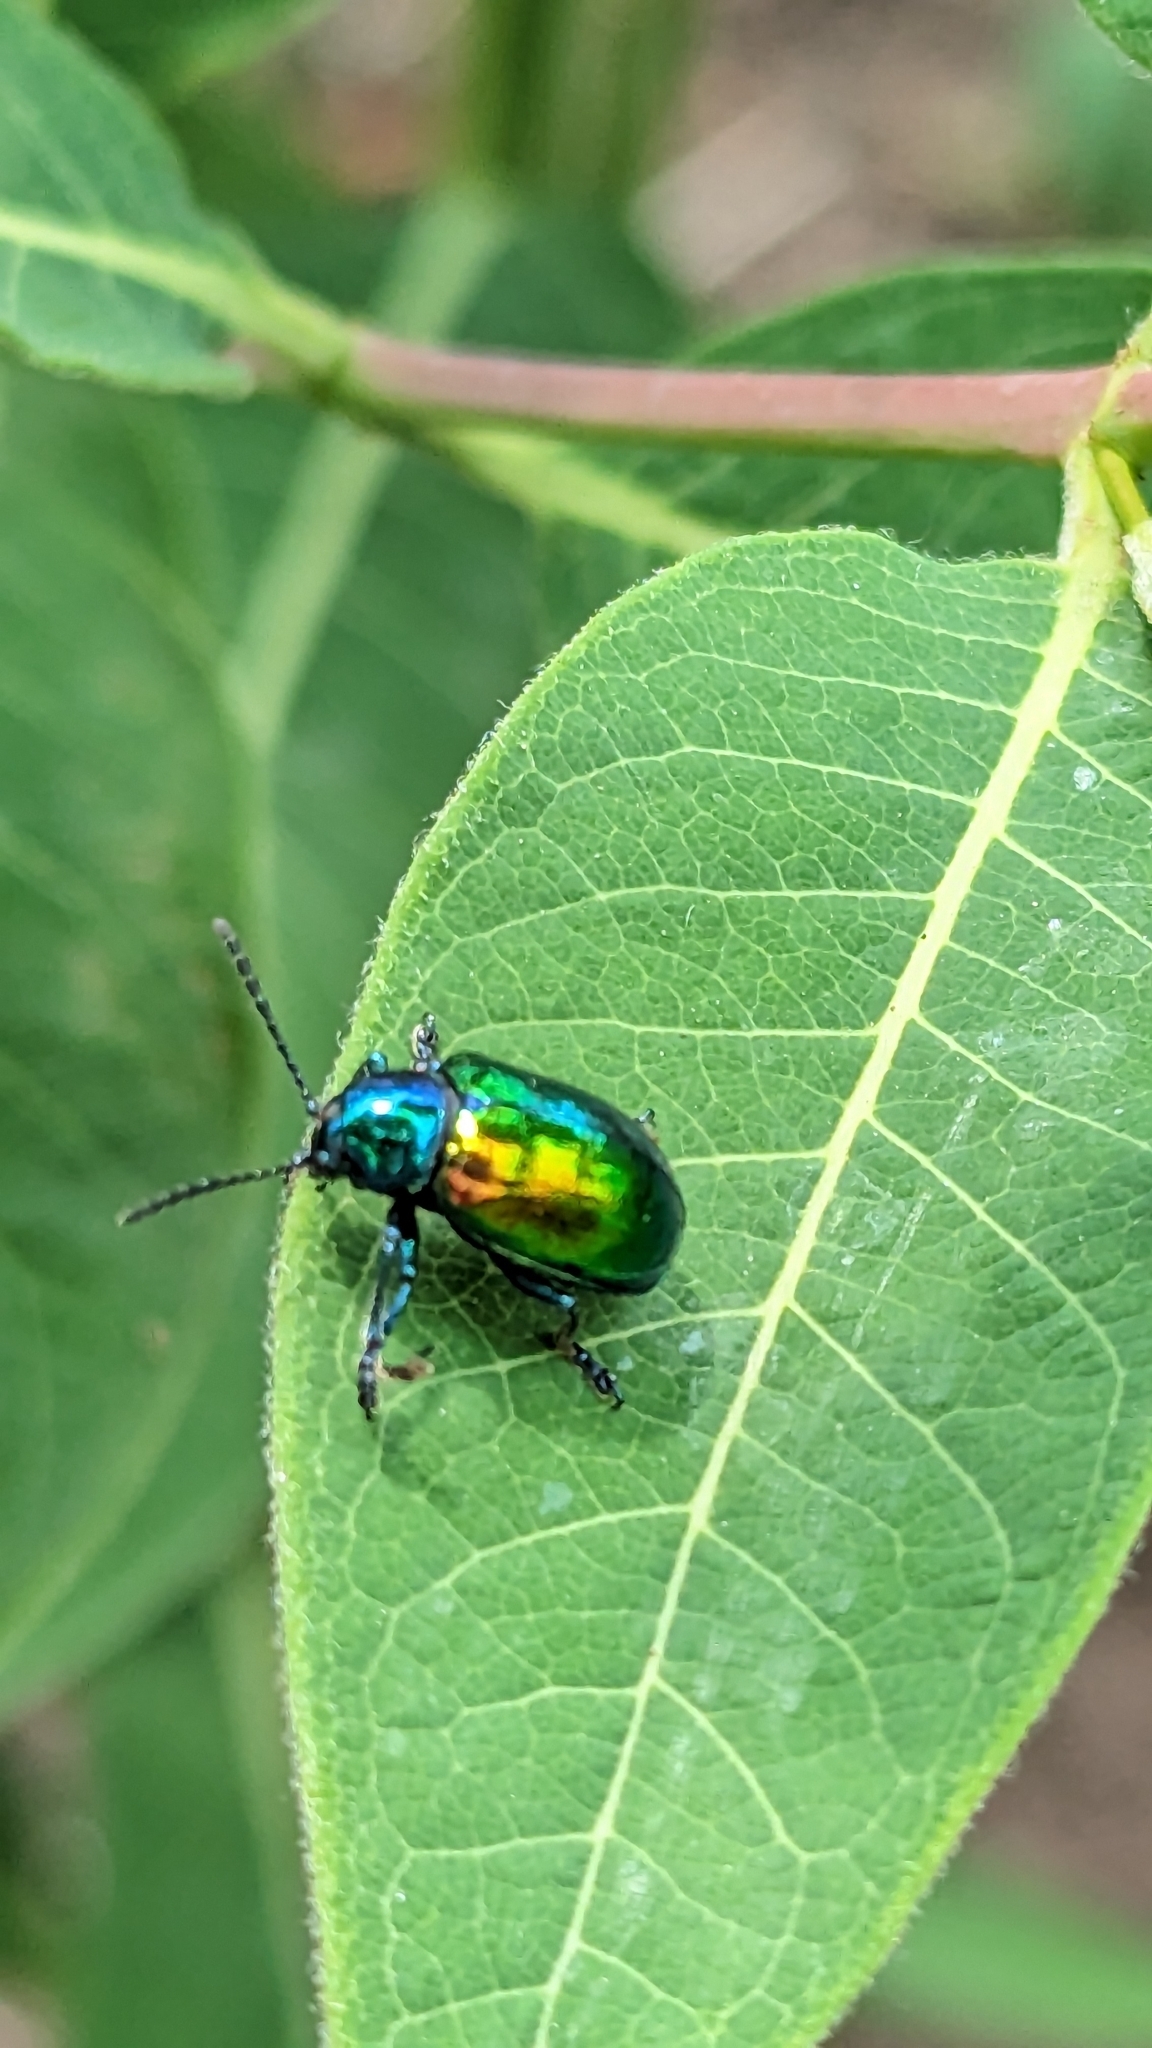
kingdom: Animalia
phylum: Arthropoda
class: Insecta
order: Coleoptera
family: Chrysomelidae
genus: Chrysochus
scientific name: Chrysochus auratus
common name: Dogbane leaf beetle
